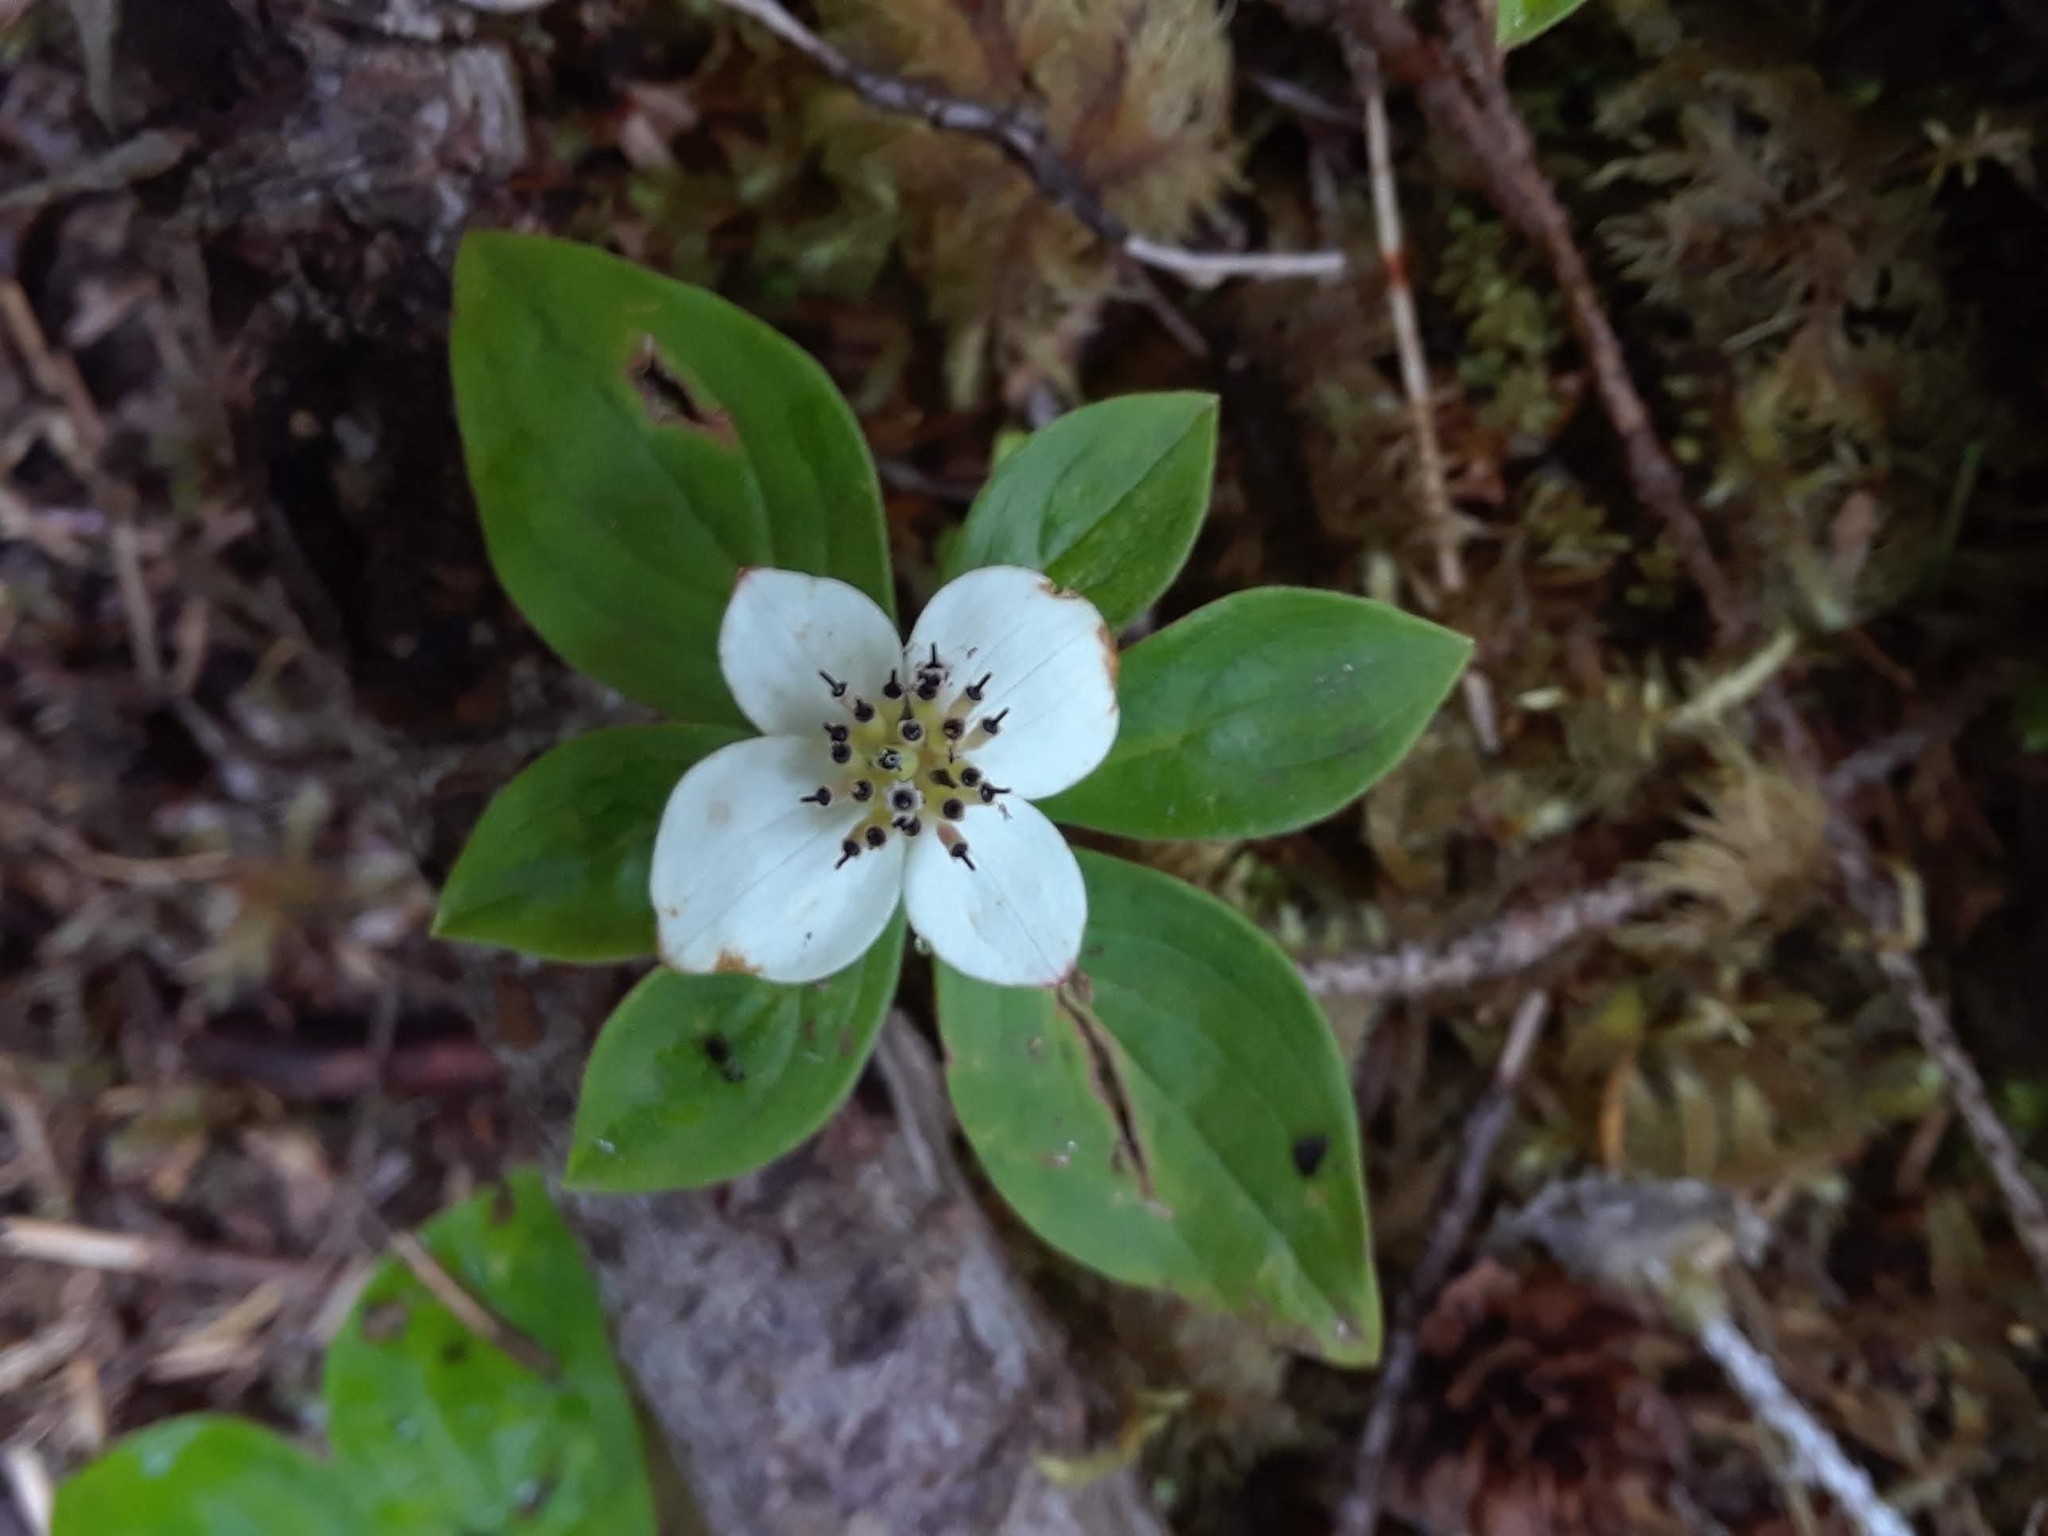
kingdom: Plantae
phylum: Tracheophyta
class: Magnoliopsida
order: Cornales
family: Cornaceae
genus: Cornus
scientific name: Cornus unalaschkensis
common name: Alaska bunchberry
